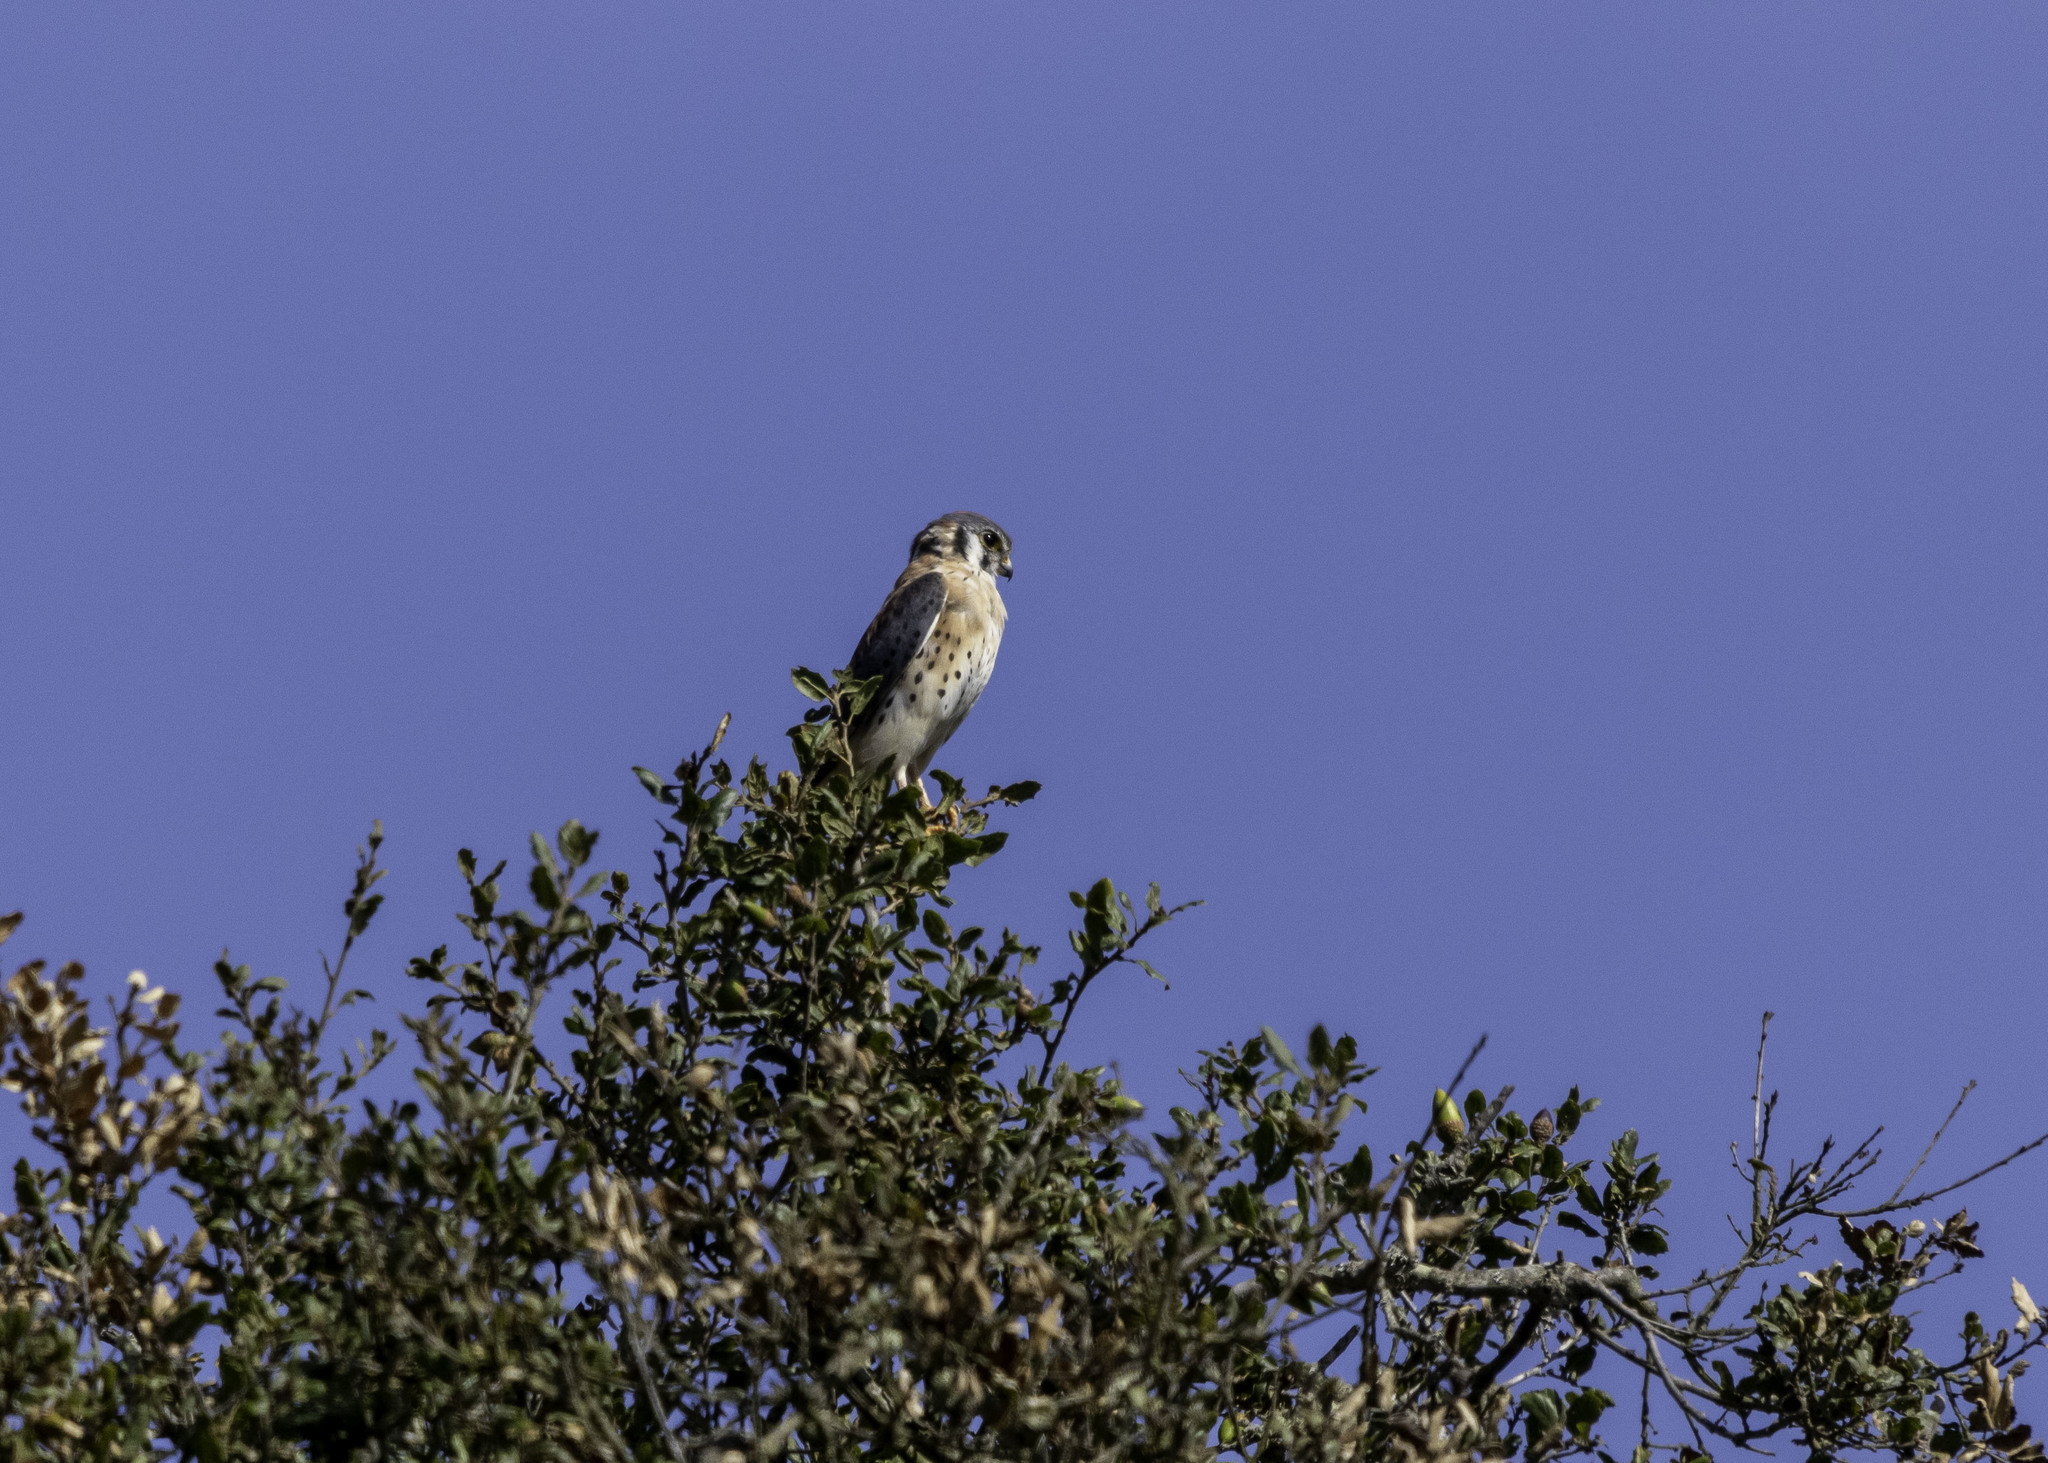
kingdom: Animalia
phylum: Chordata
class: Aves
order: Falconiformes
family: Falconidae
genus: Falco
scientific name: Falco sparverius
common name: American kestrel
